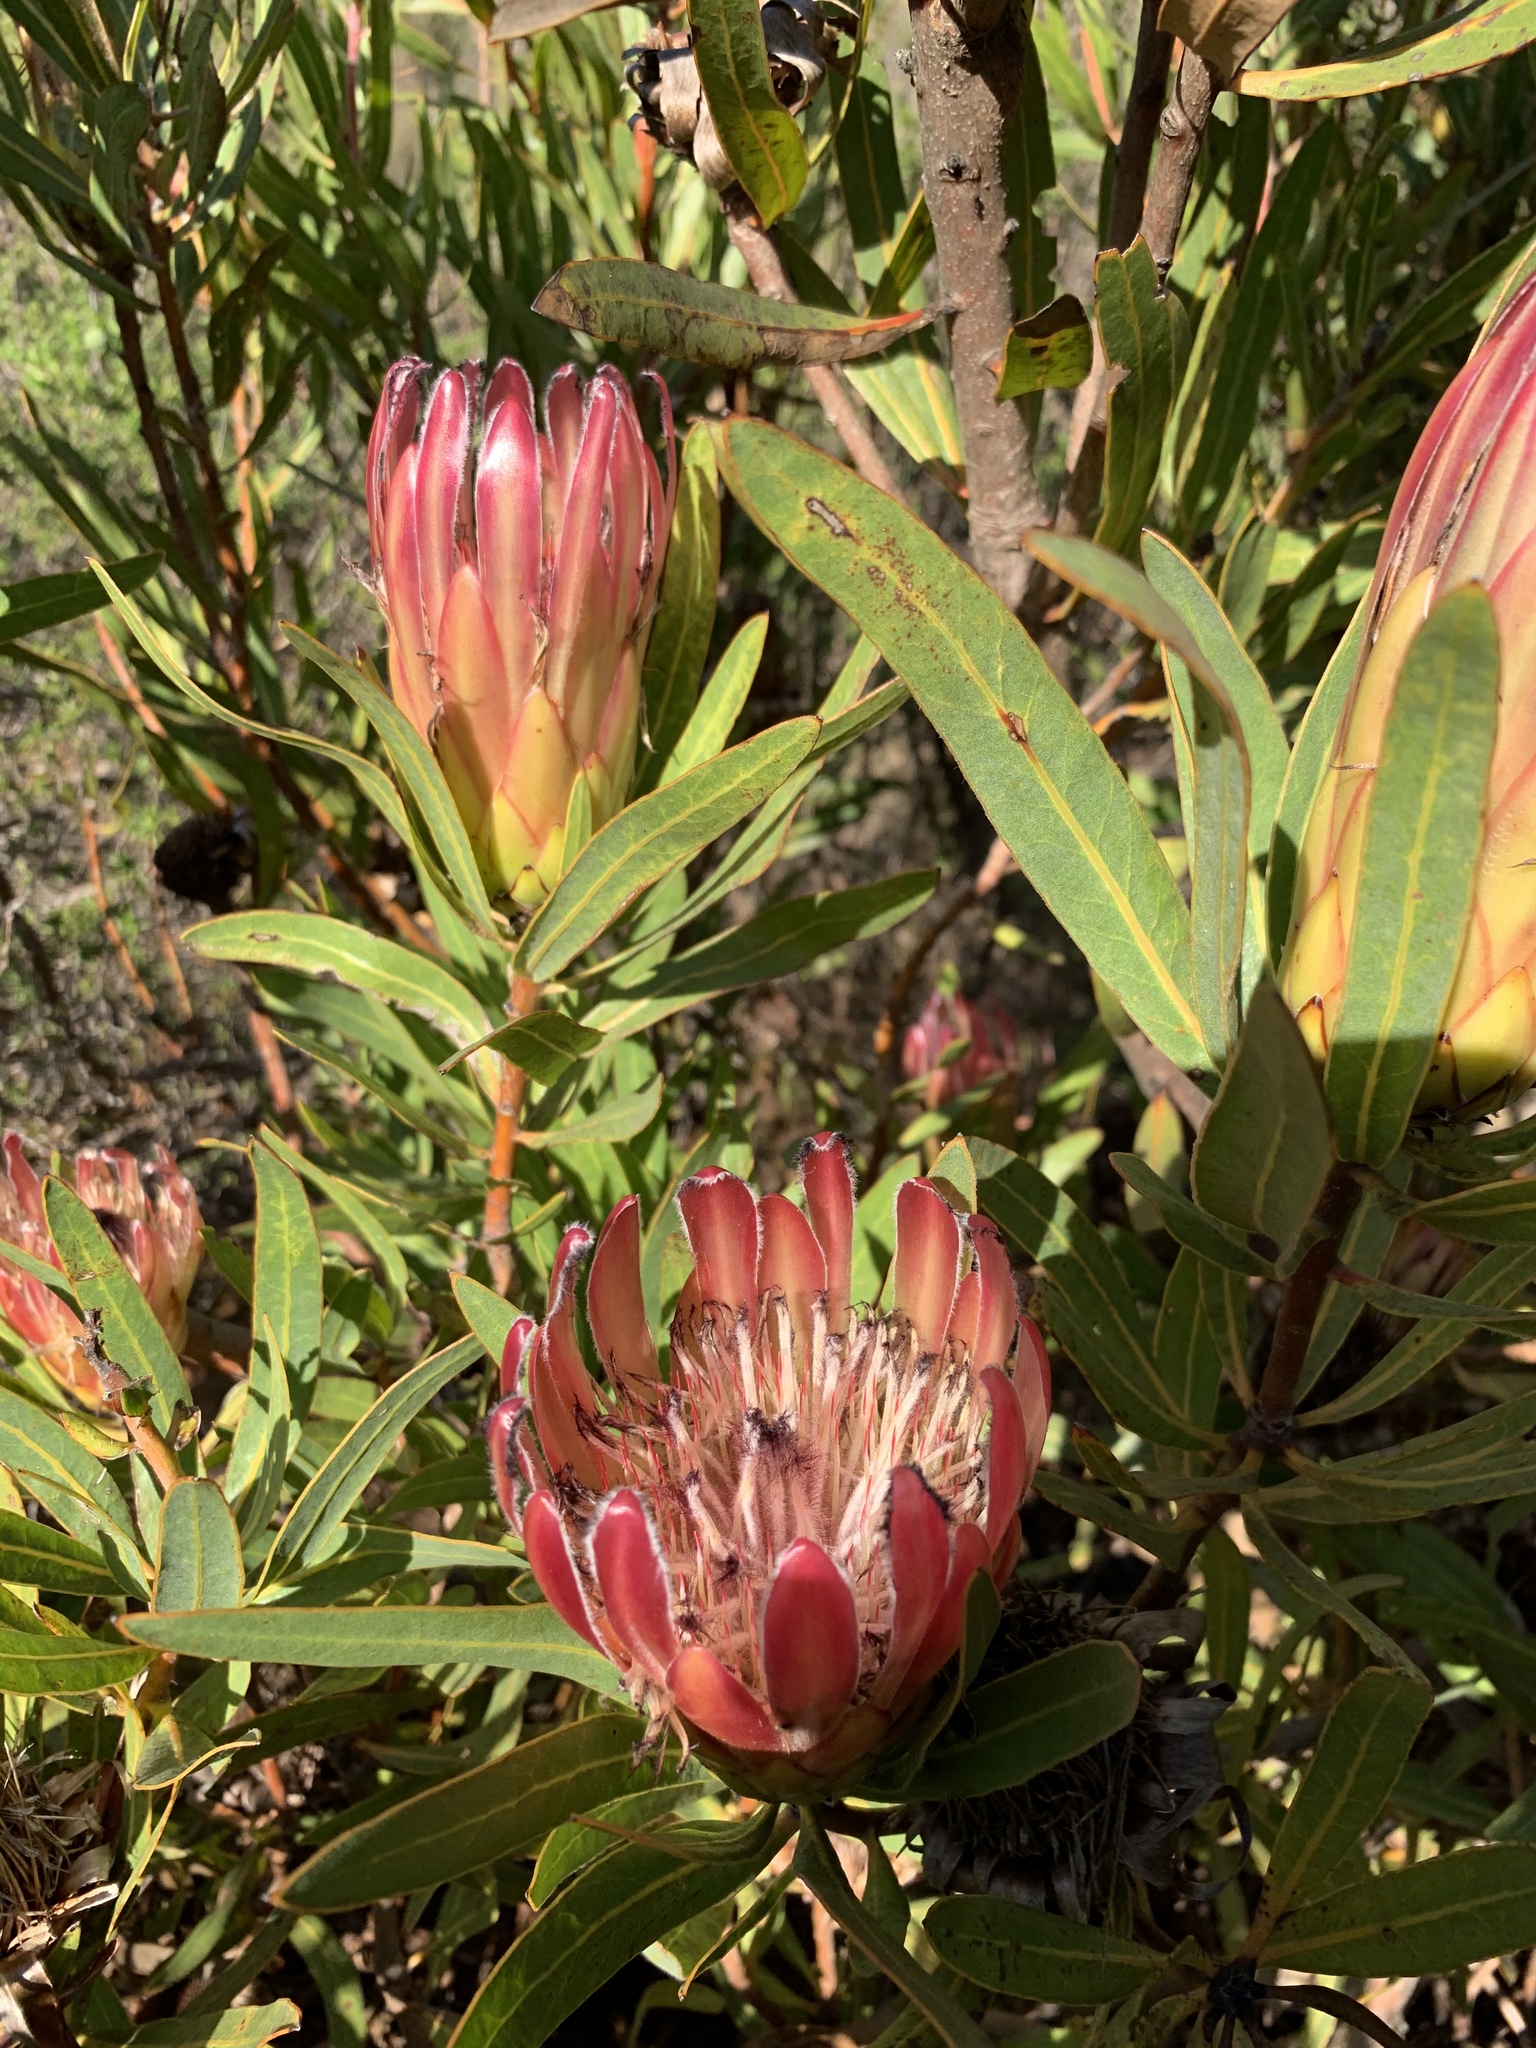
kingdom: Plantae
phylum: Tracheophyta
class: Magnoliopsida
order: Proteales
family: Proteaceae
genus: Protea
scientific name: Protea burchellii
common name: Burchell's sugarbush
